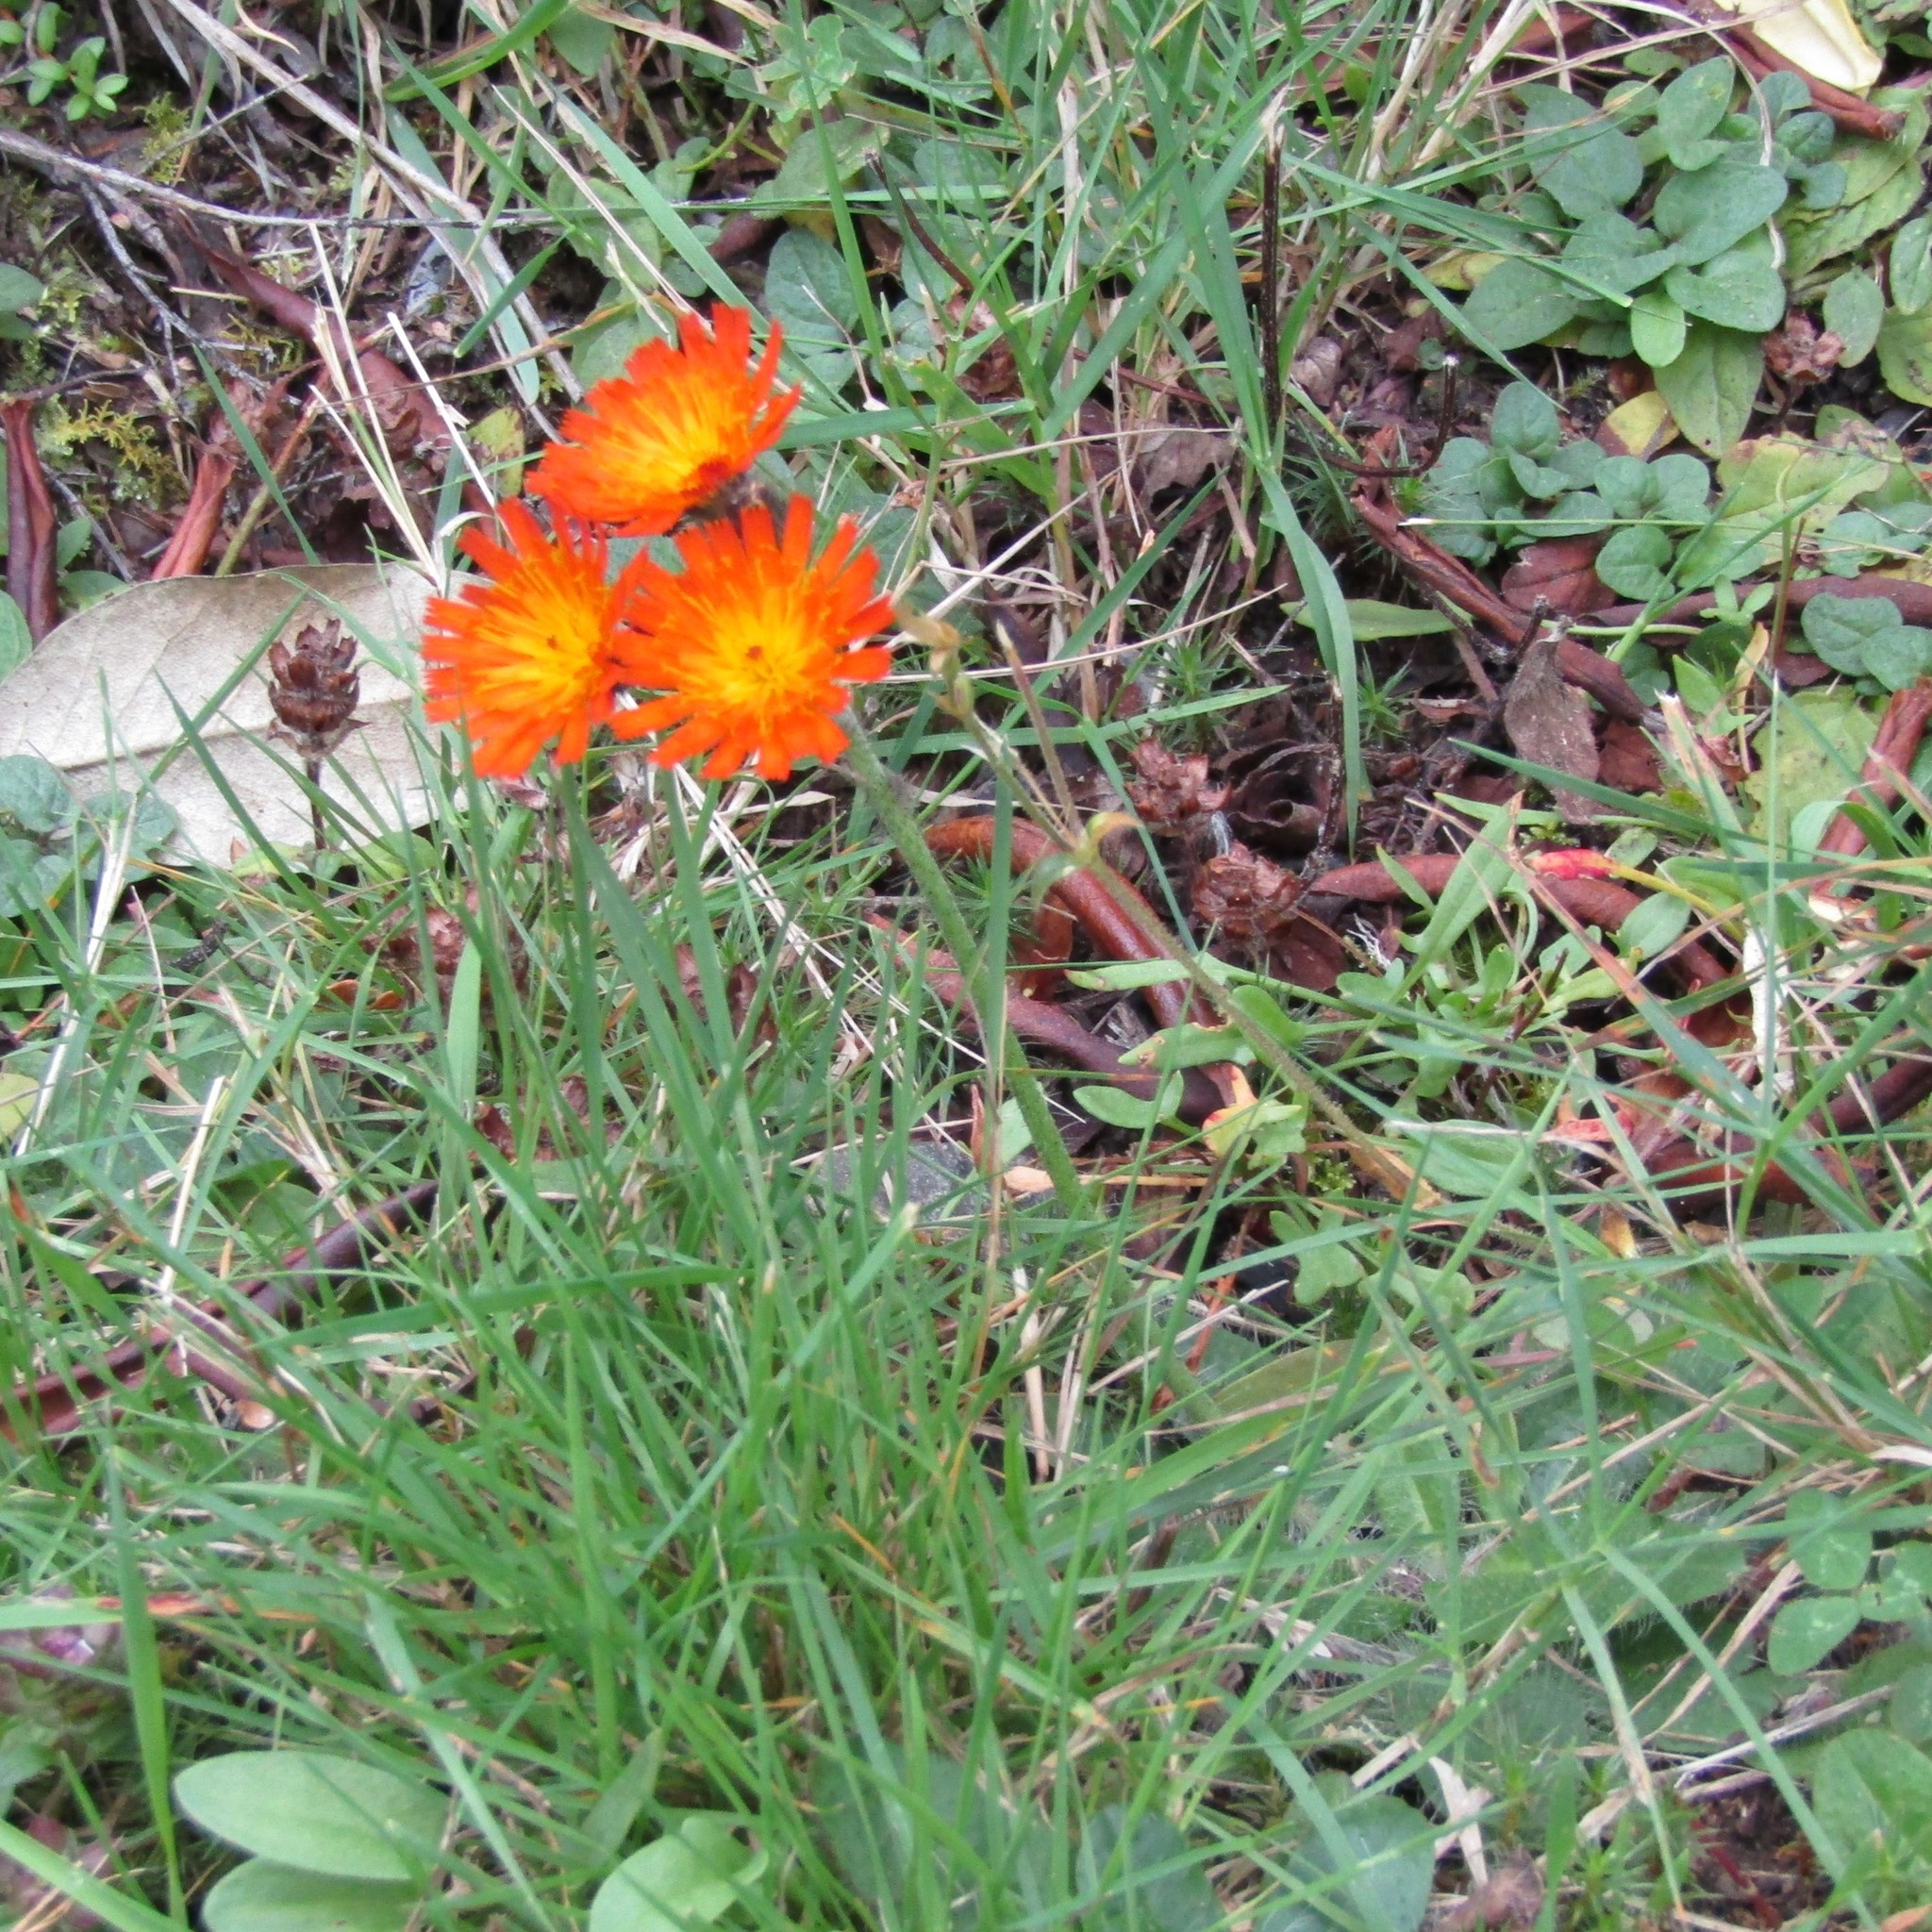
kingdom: Plantae
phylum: Tracheophyta
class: Magnoliopsida
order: Asterales
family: Asteraceae
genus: Pilosella
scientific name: Pilosella aurantiaca
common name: Fox-and-cubs
